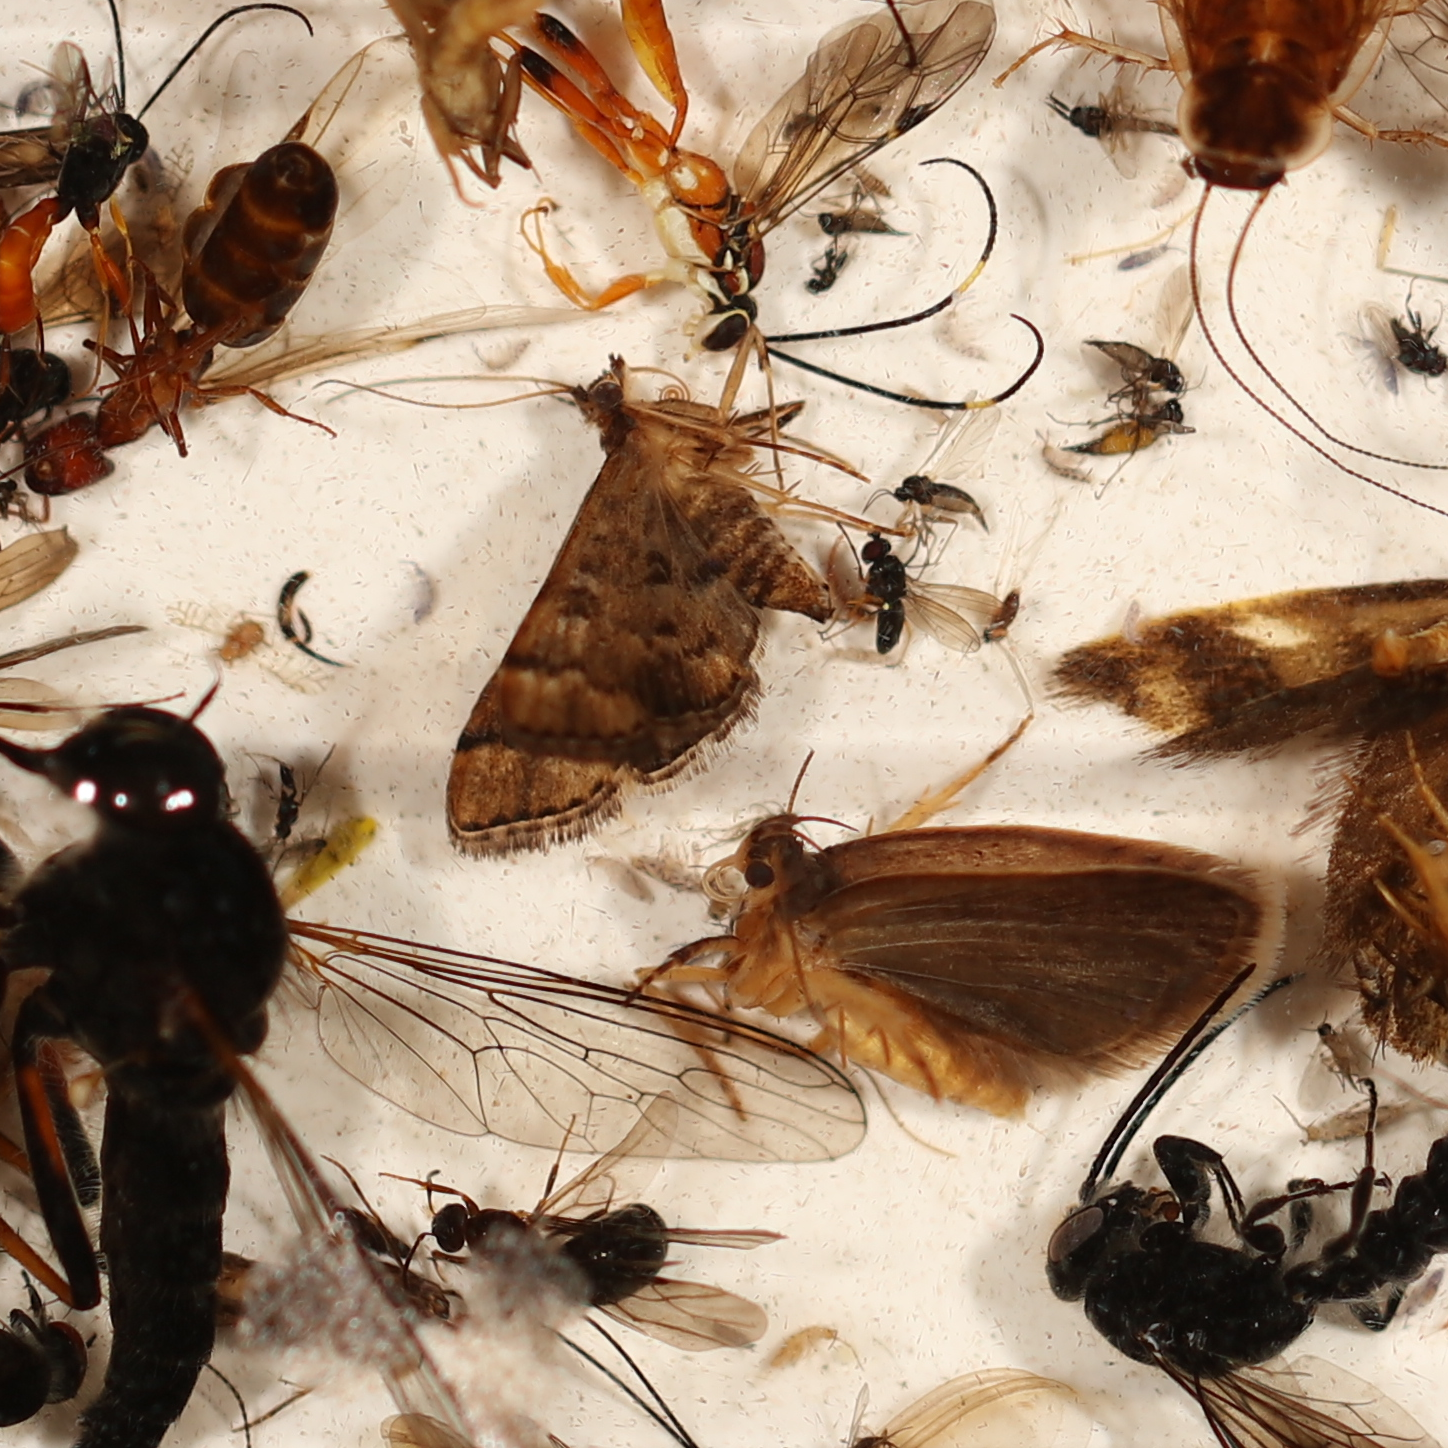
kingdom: Animalia
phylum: Arthropoda
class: Insecta
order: Lepidoptera
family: Crambidae
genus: Nacoleia
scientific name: Nacoleia rhoeoalis
